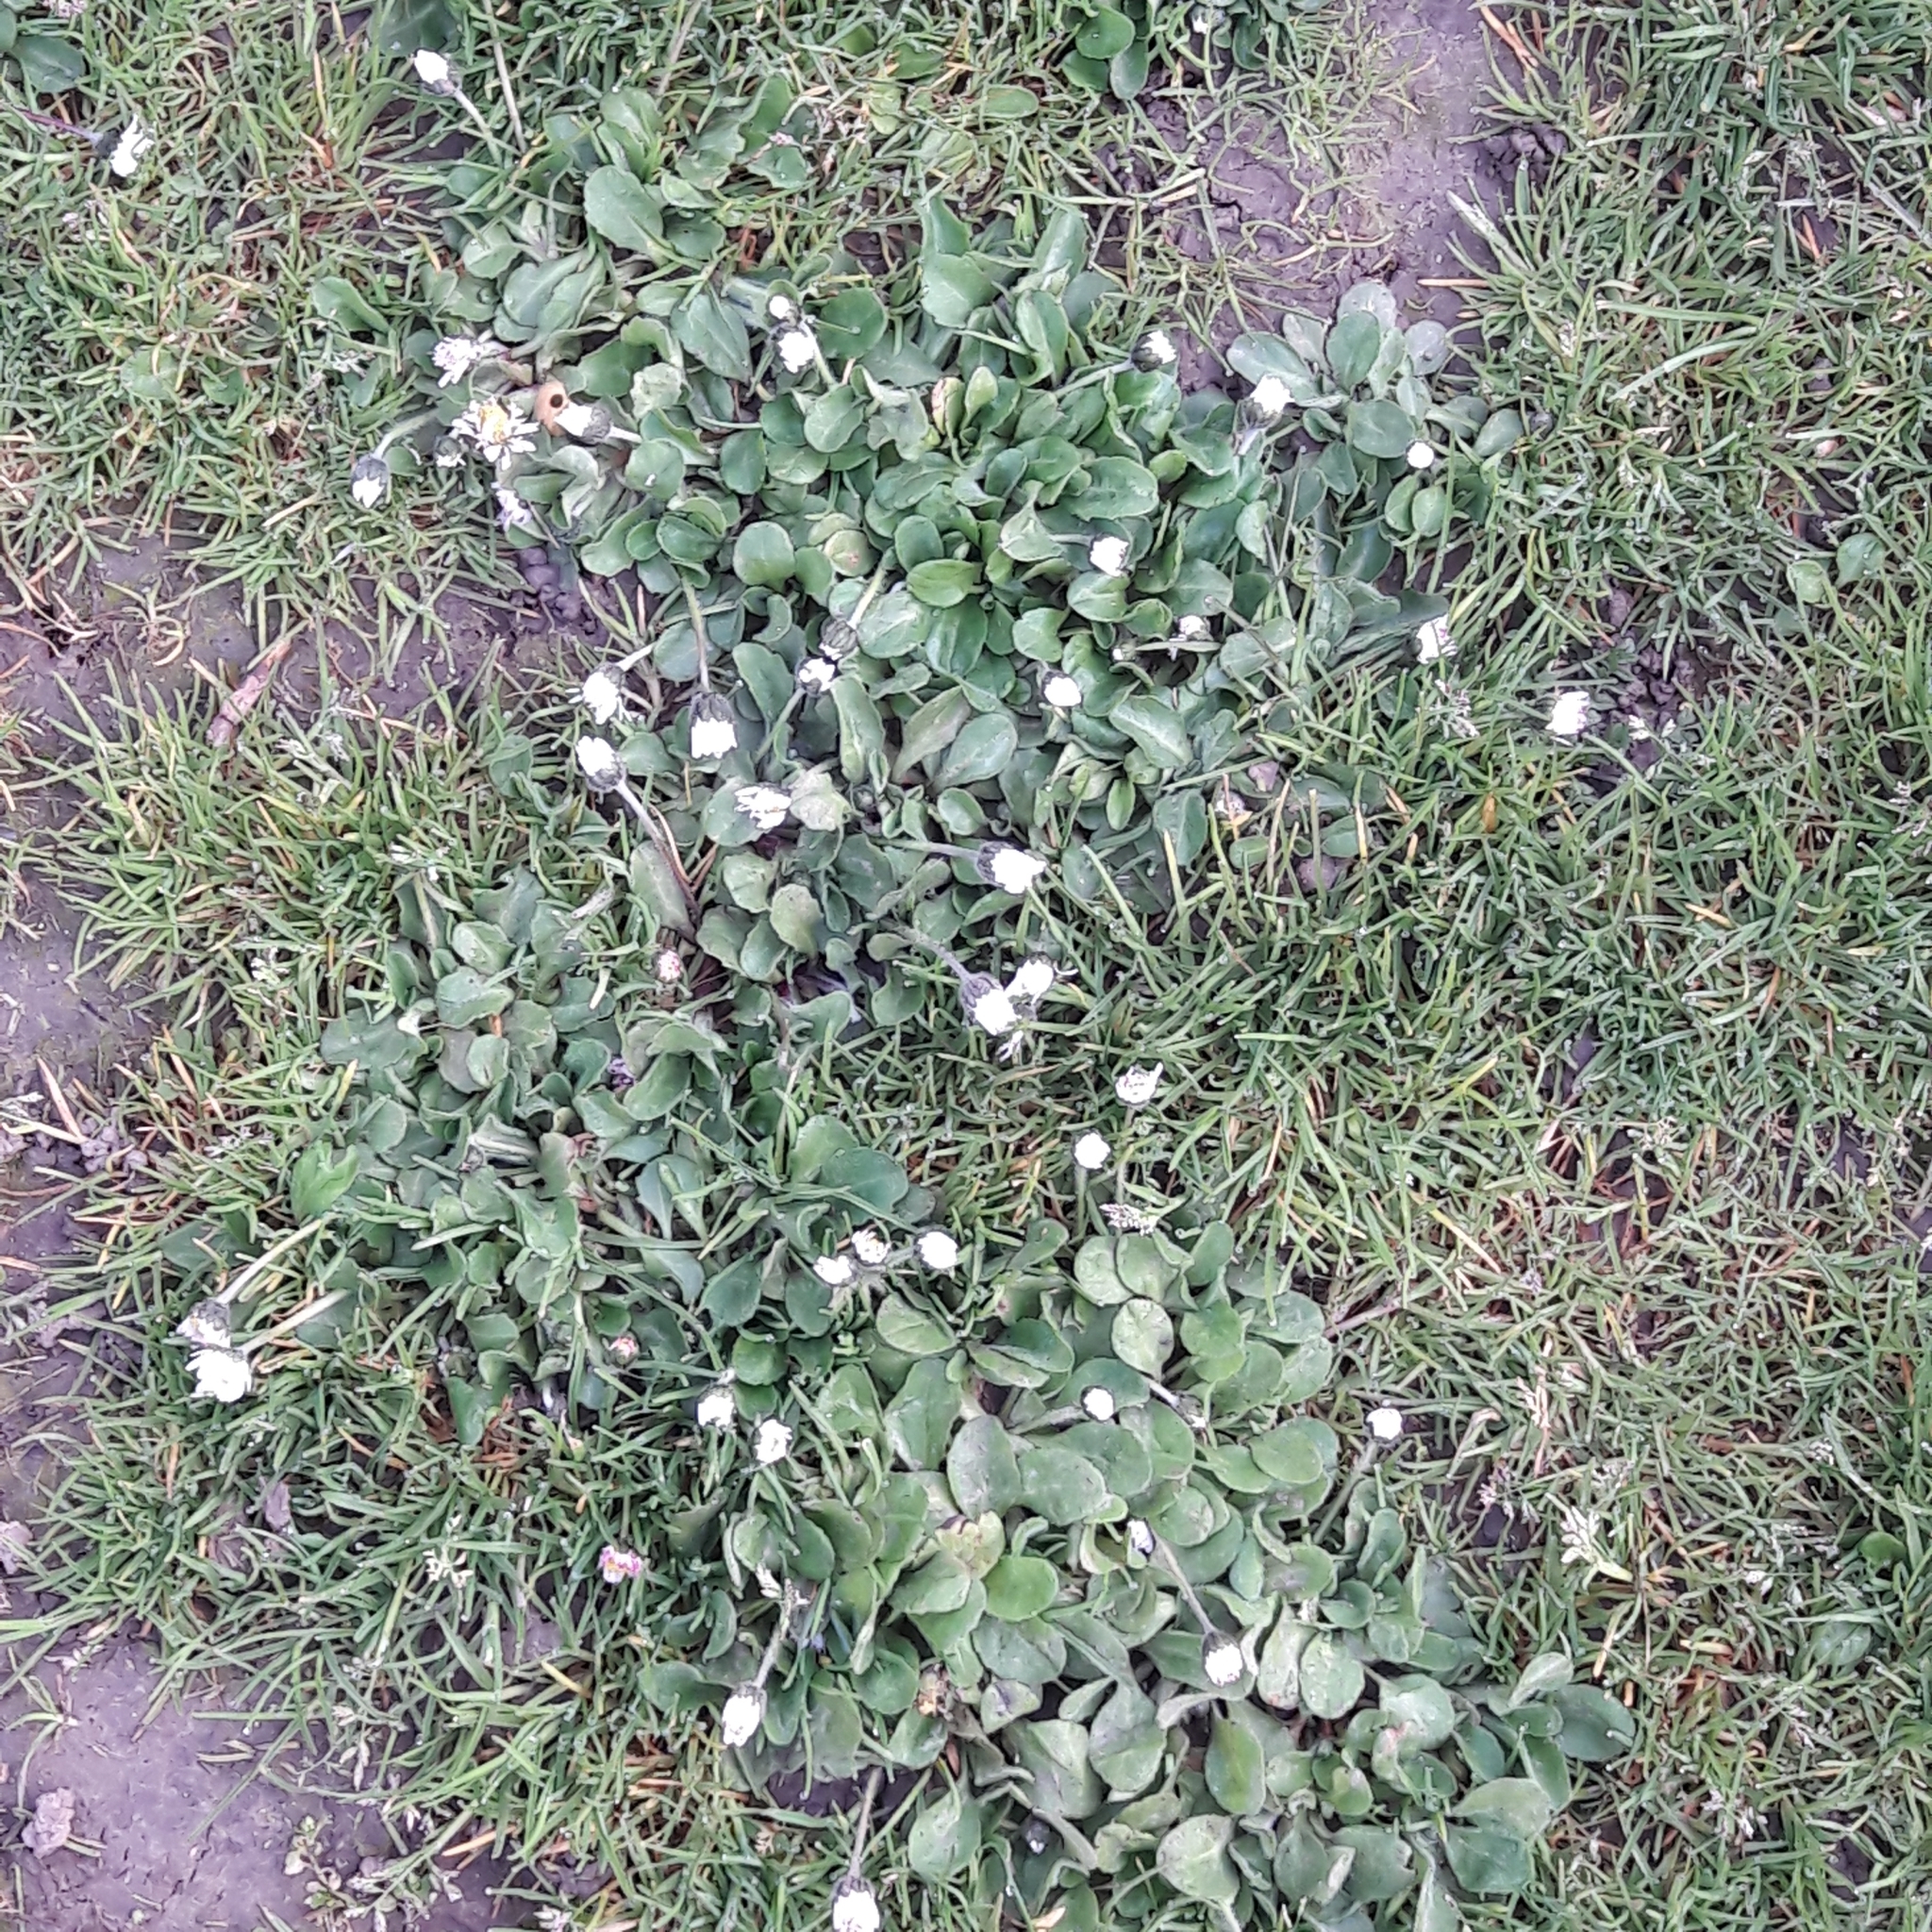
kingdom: Plantae
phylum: Tracheophyta
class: Magnoliopsida
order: Asterales
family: Asteraceae
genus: Bellis
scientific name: Bellis perennis
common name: Lawndaisy
